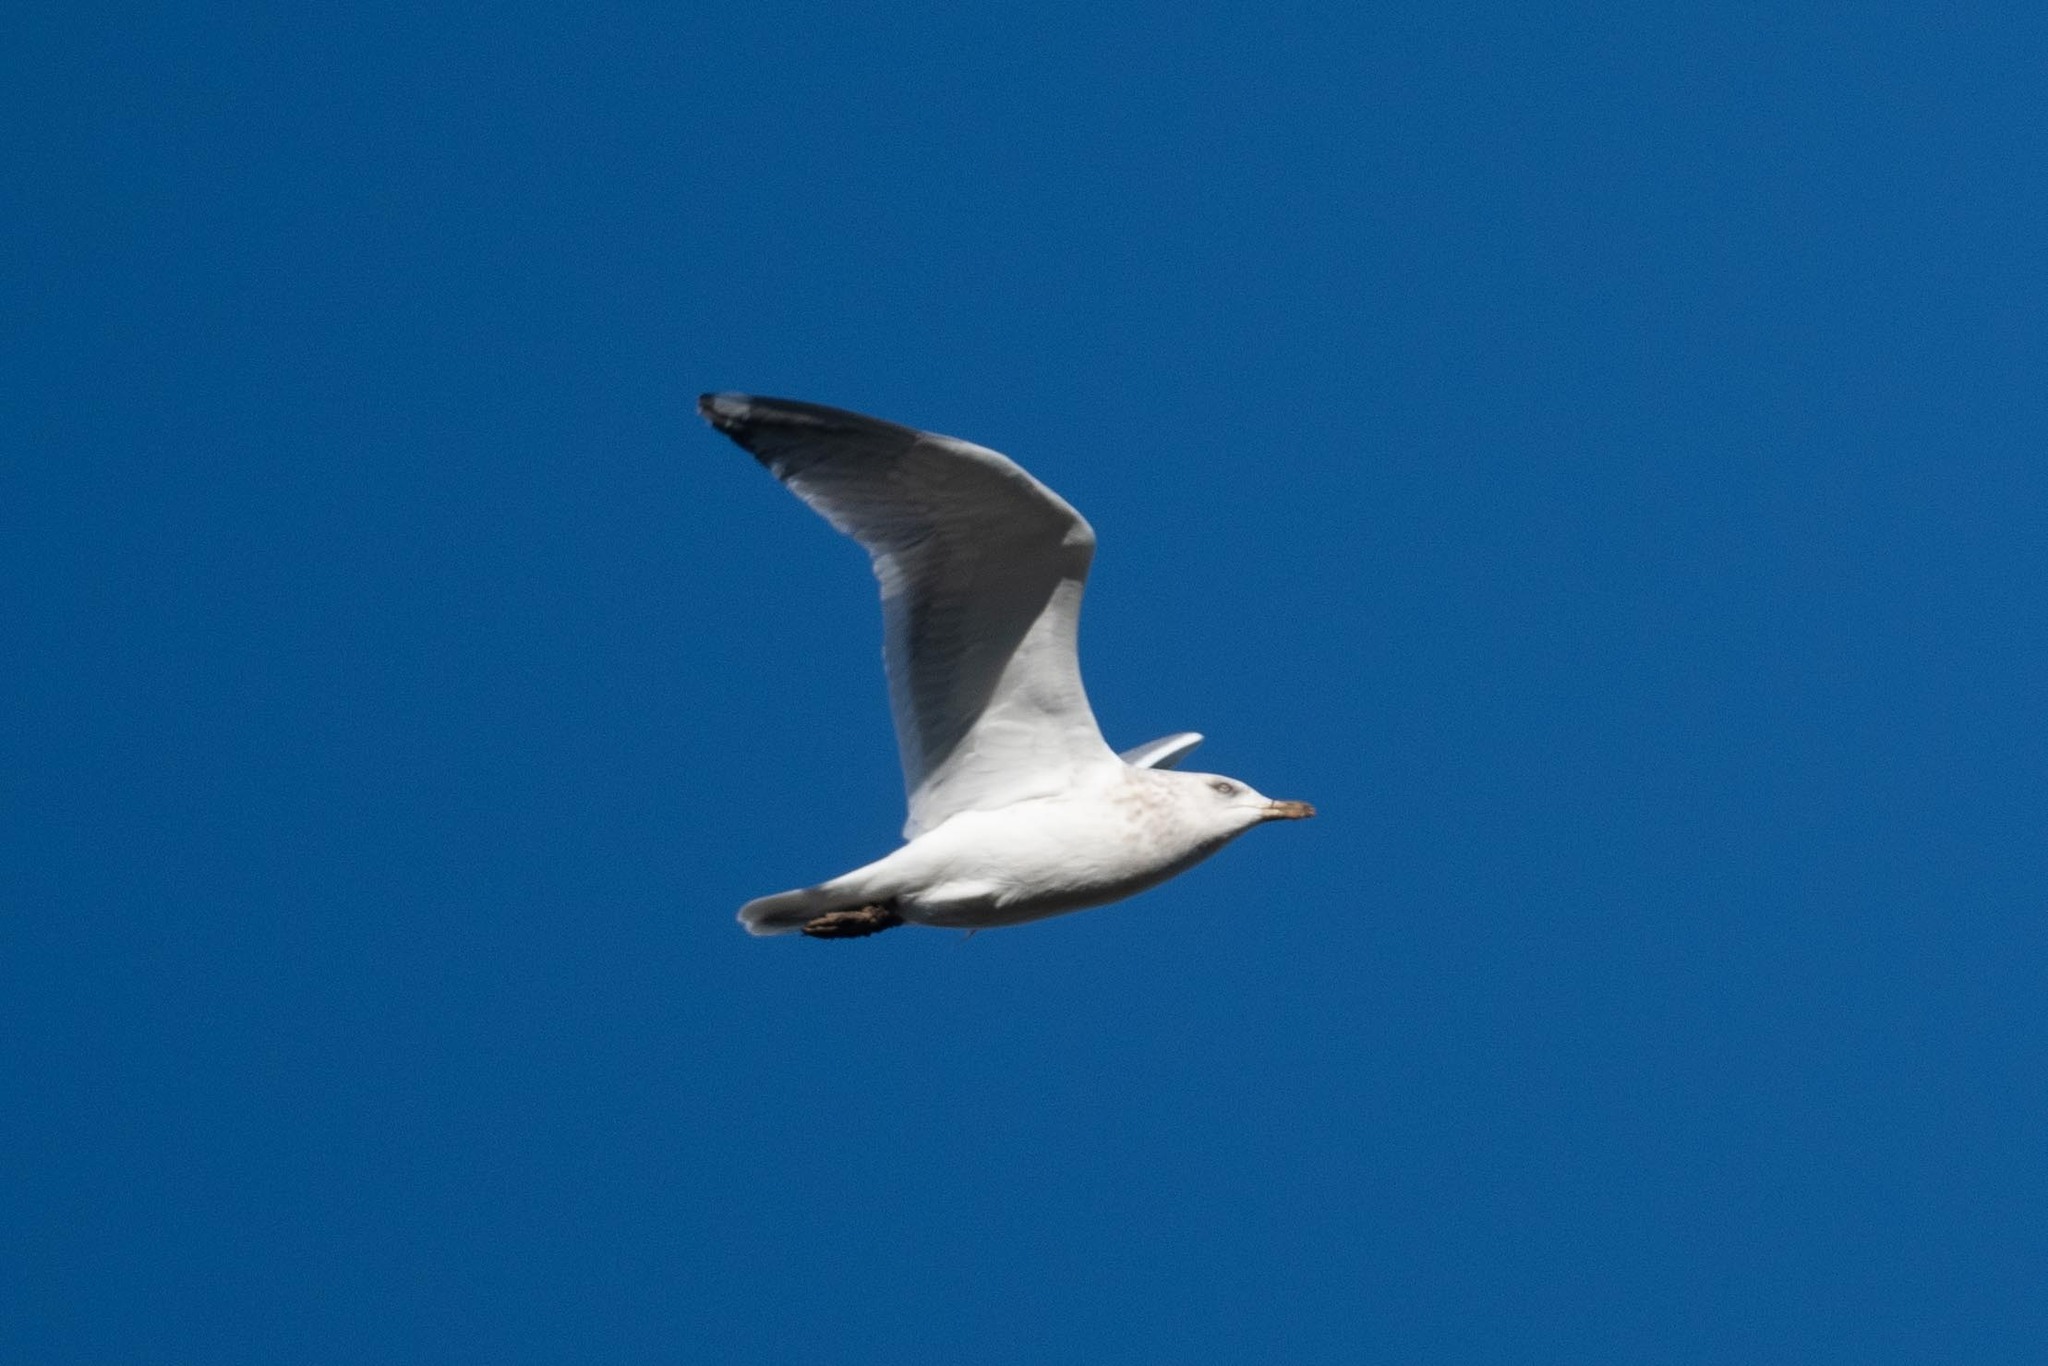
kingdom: Animalia
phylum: Chordata
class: Aves
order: Charadriiformes
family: Laridae
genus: Larus
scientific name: Larus argentatus
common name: Herring gull
